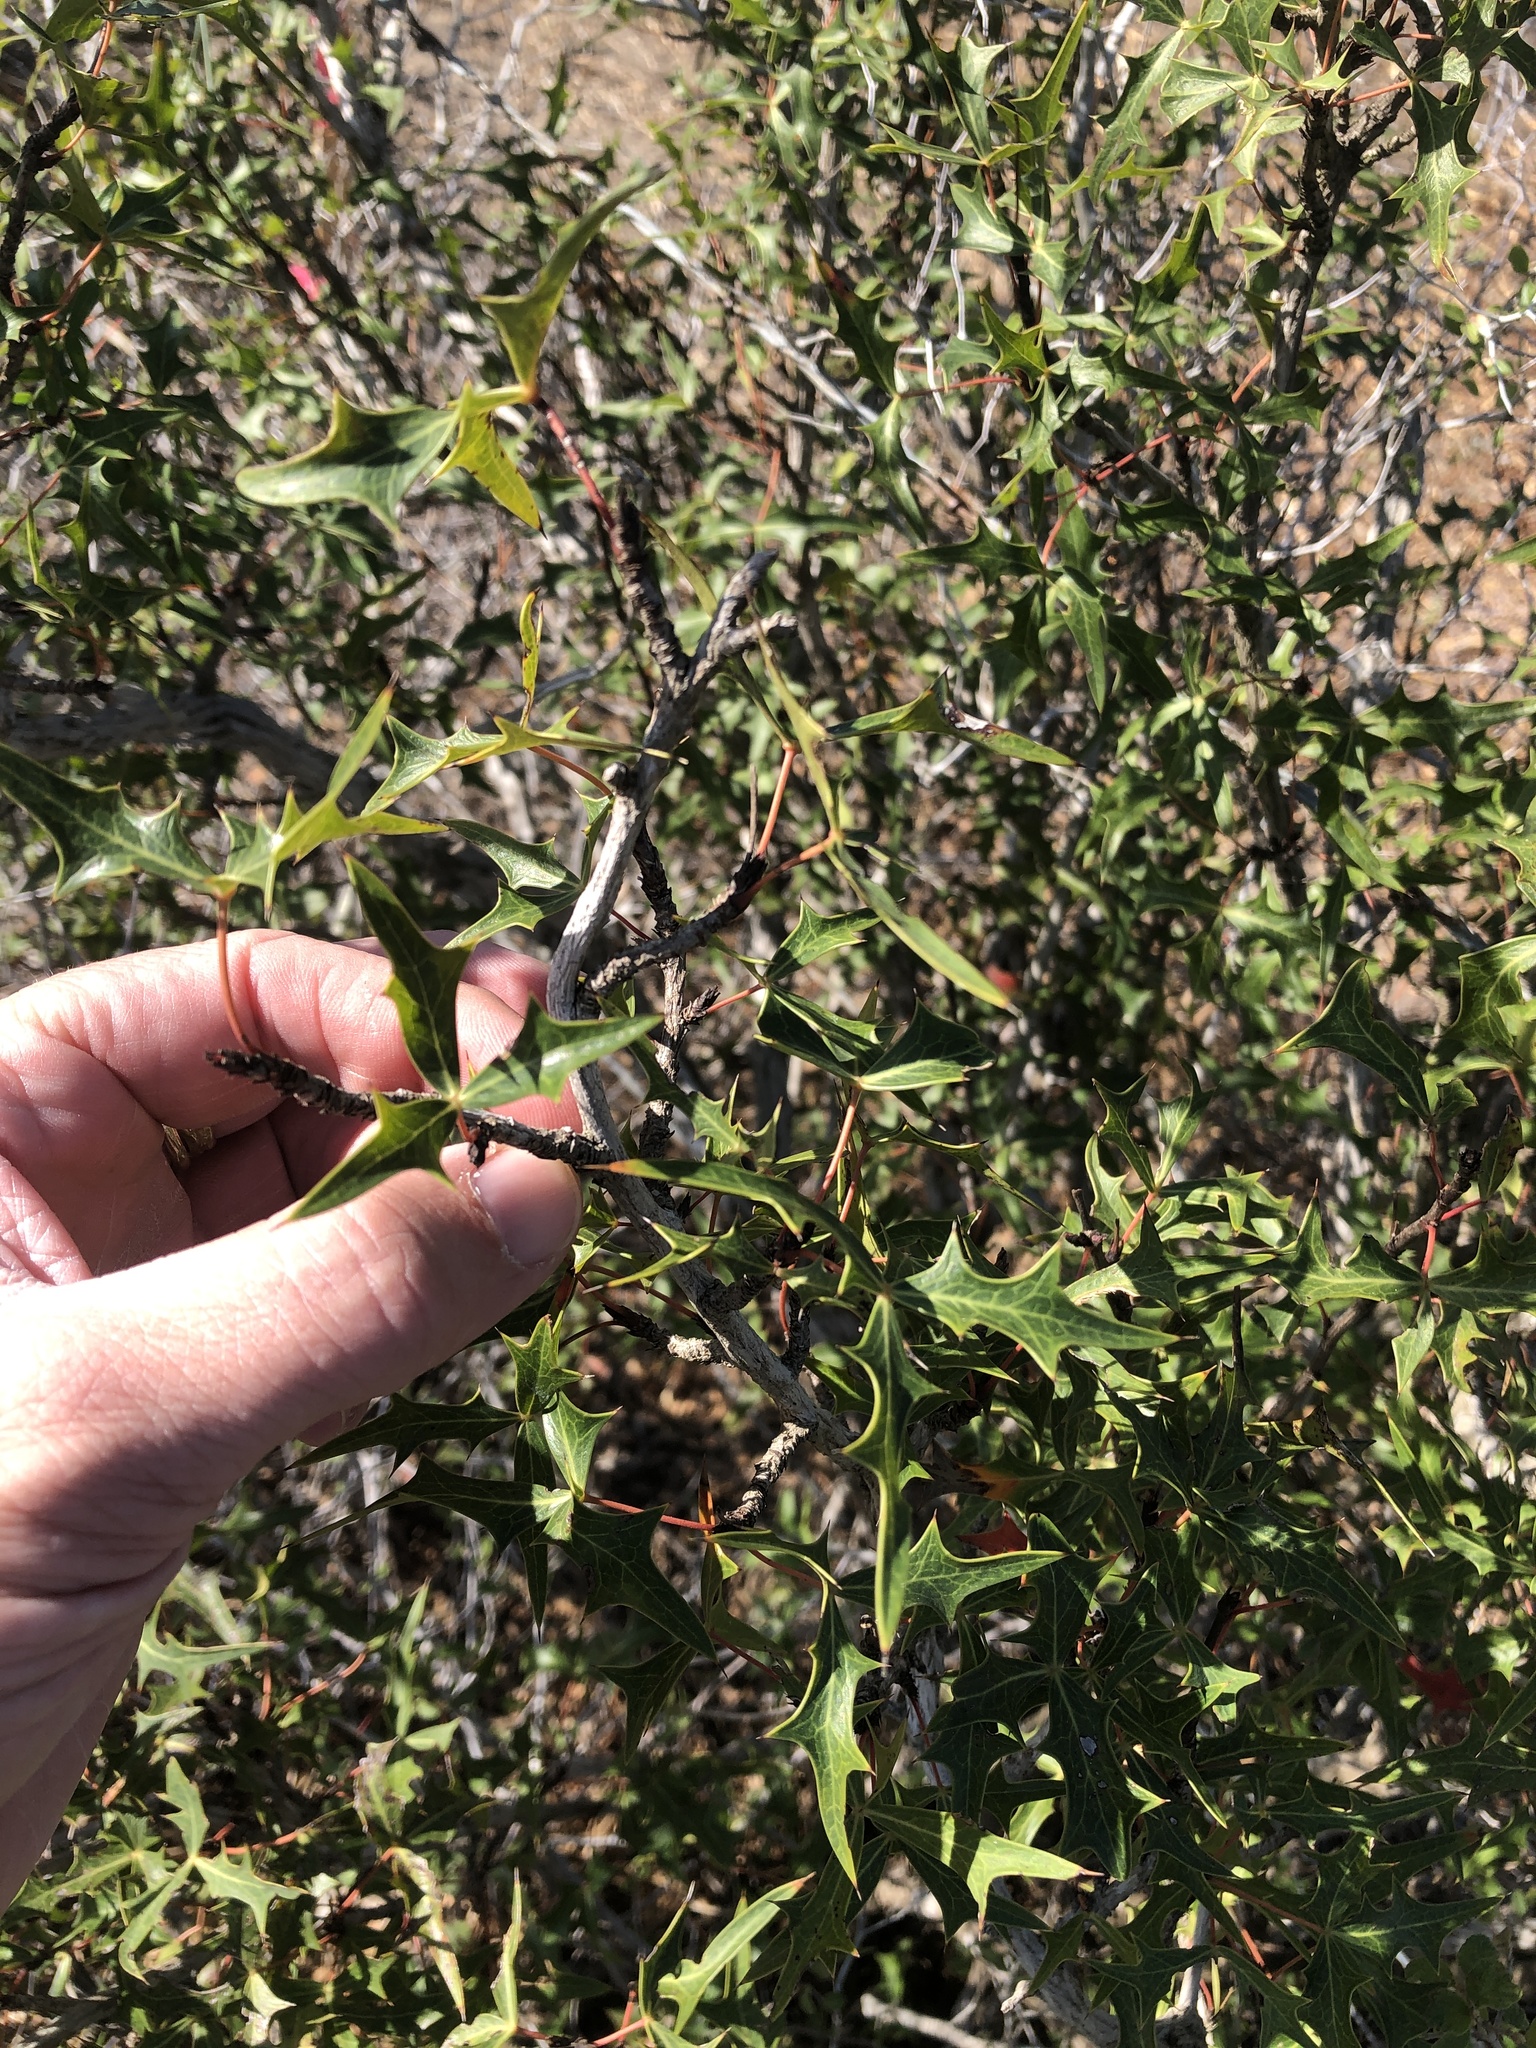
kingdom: Plantae
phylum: Tracheophyta
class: Magnoliopsida
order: Ranunculales
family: Berberidaceae
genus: Alloberberis
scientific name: Alloberberis trifoliolata
